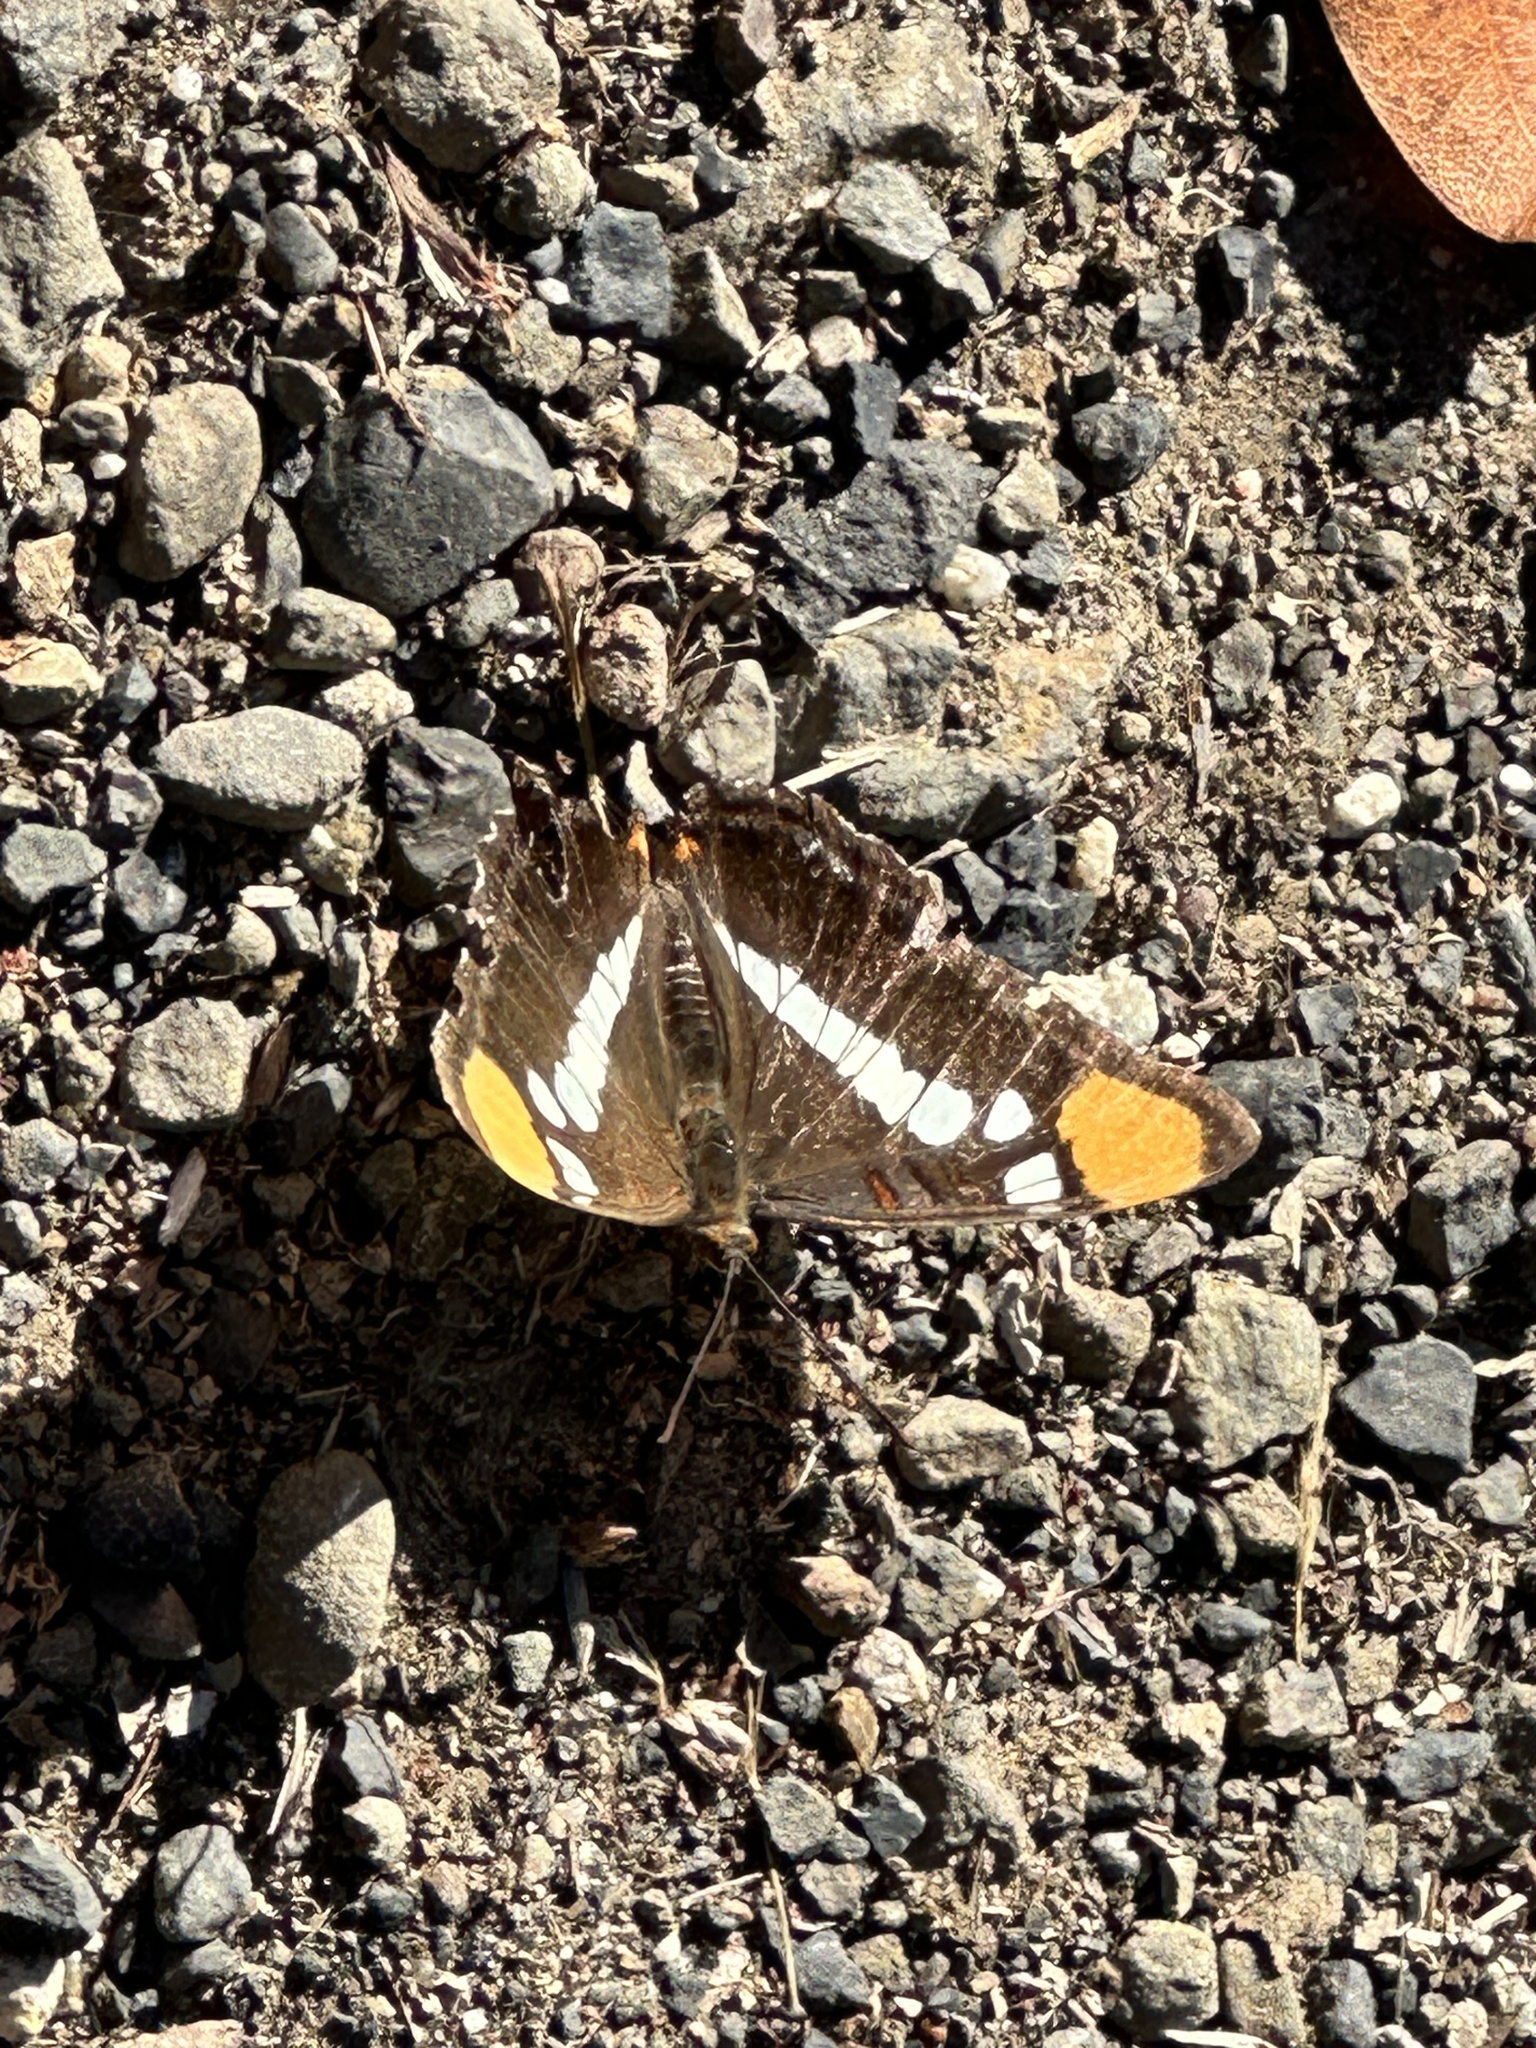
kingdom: Animalia
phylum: Arthropoda
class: Insecta
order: Lepidoptera
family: Nymphalidae
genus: Limenitis
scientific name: Limenitis bredowii
